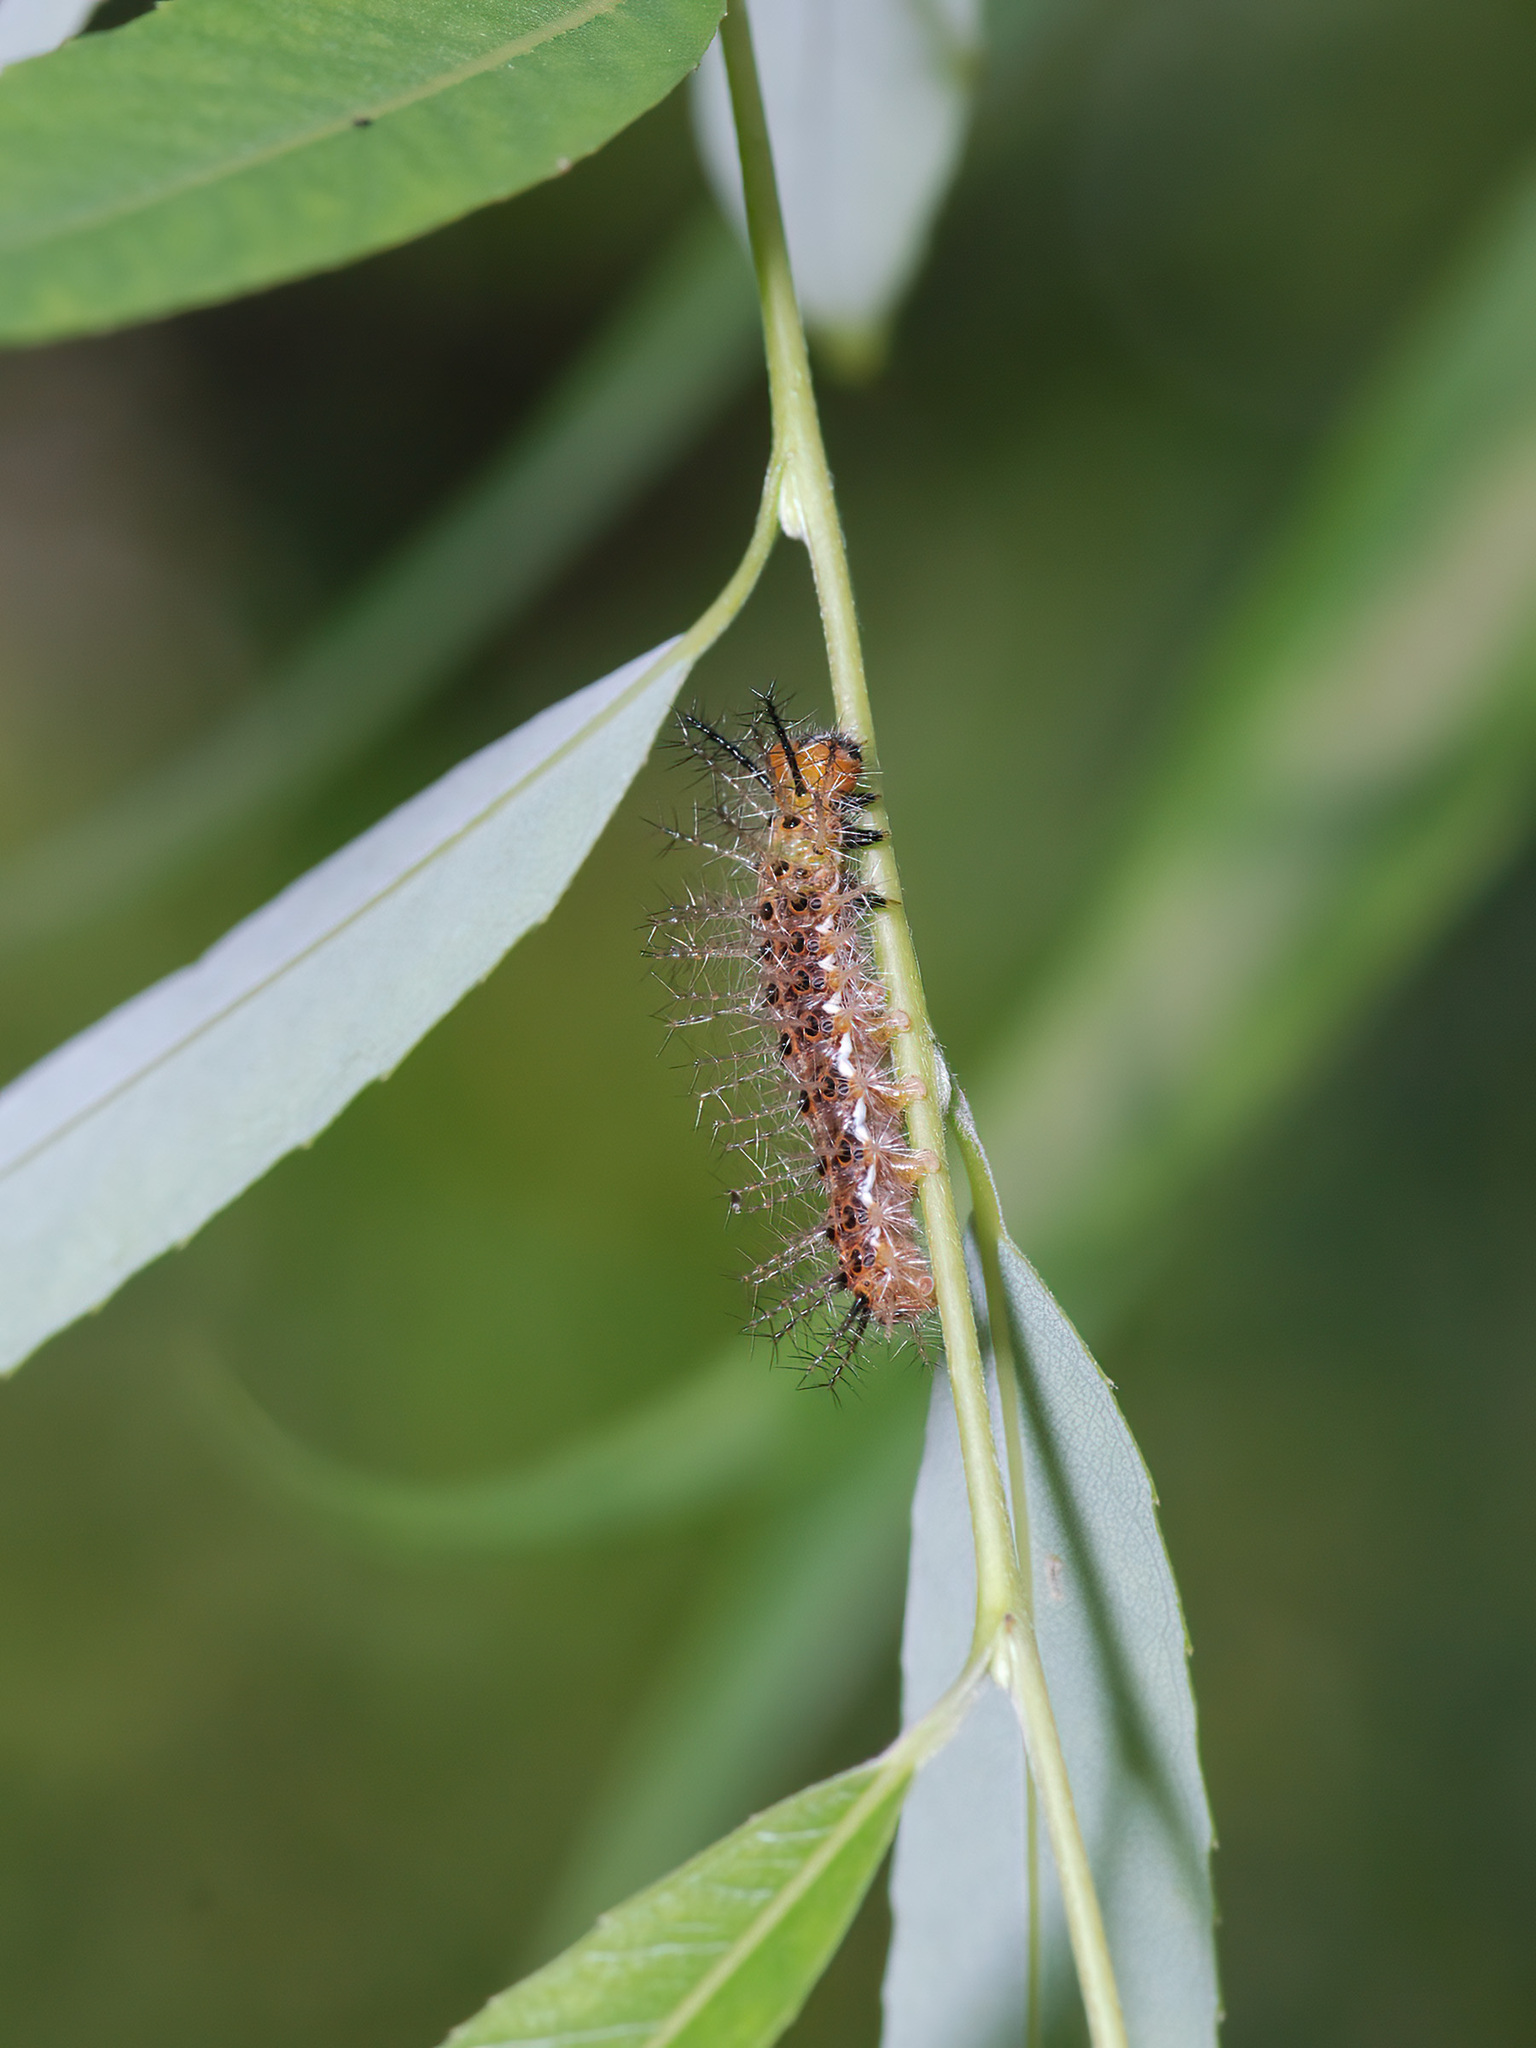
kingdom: Animalia
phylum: Arthropoda
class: Insecta
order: Lepidoptera
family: Nymphalidae
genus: Phalanta
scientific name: Phalanta phalantha
